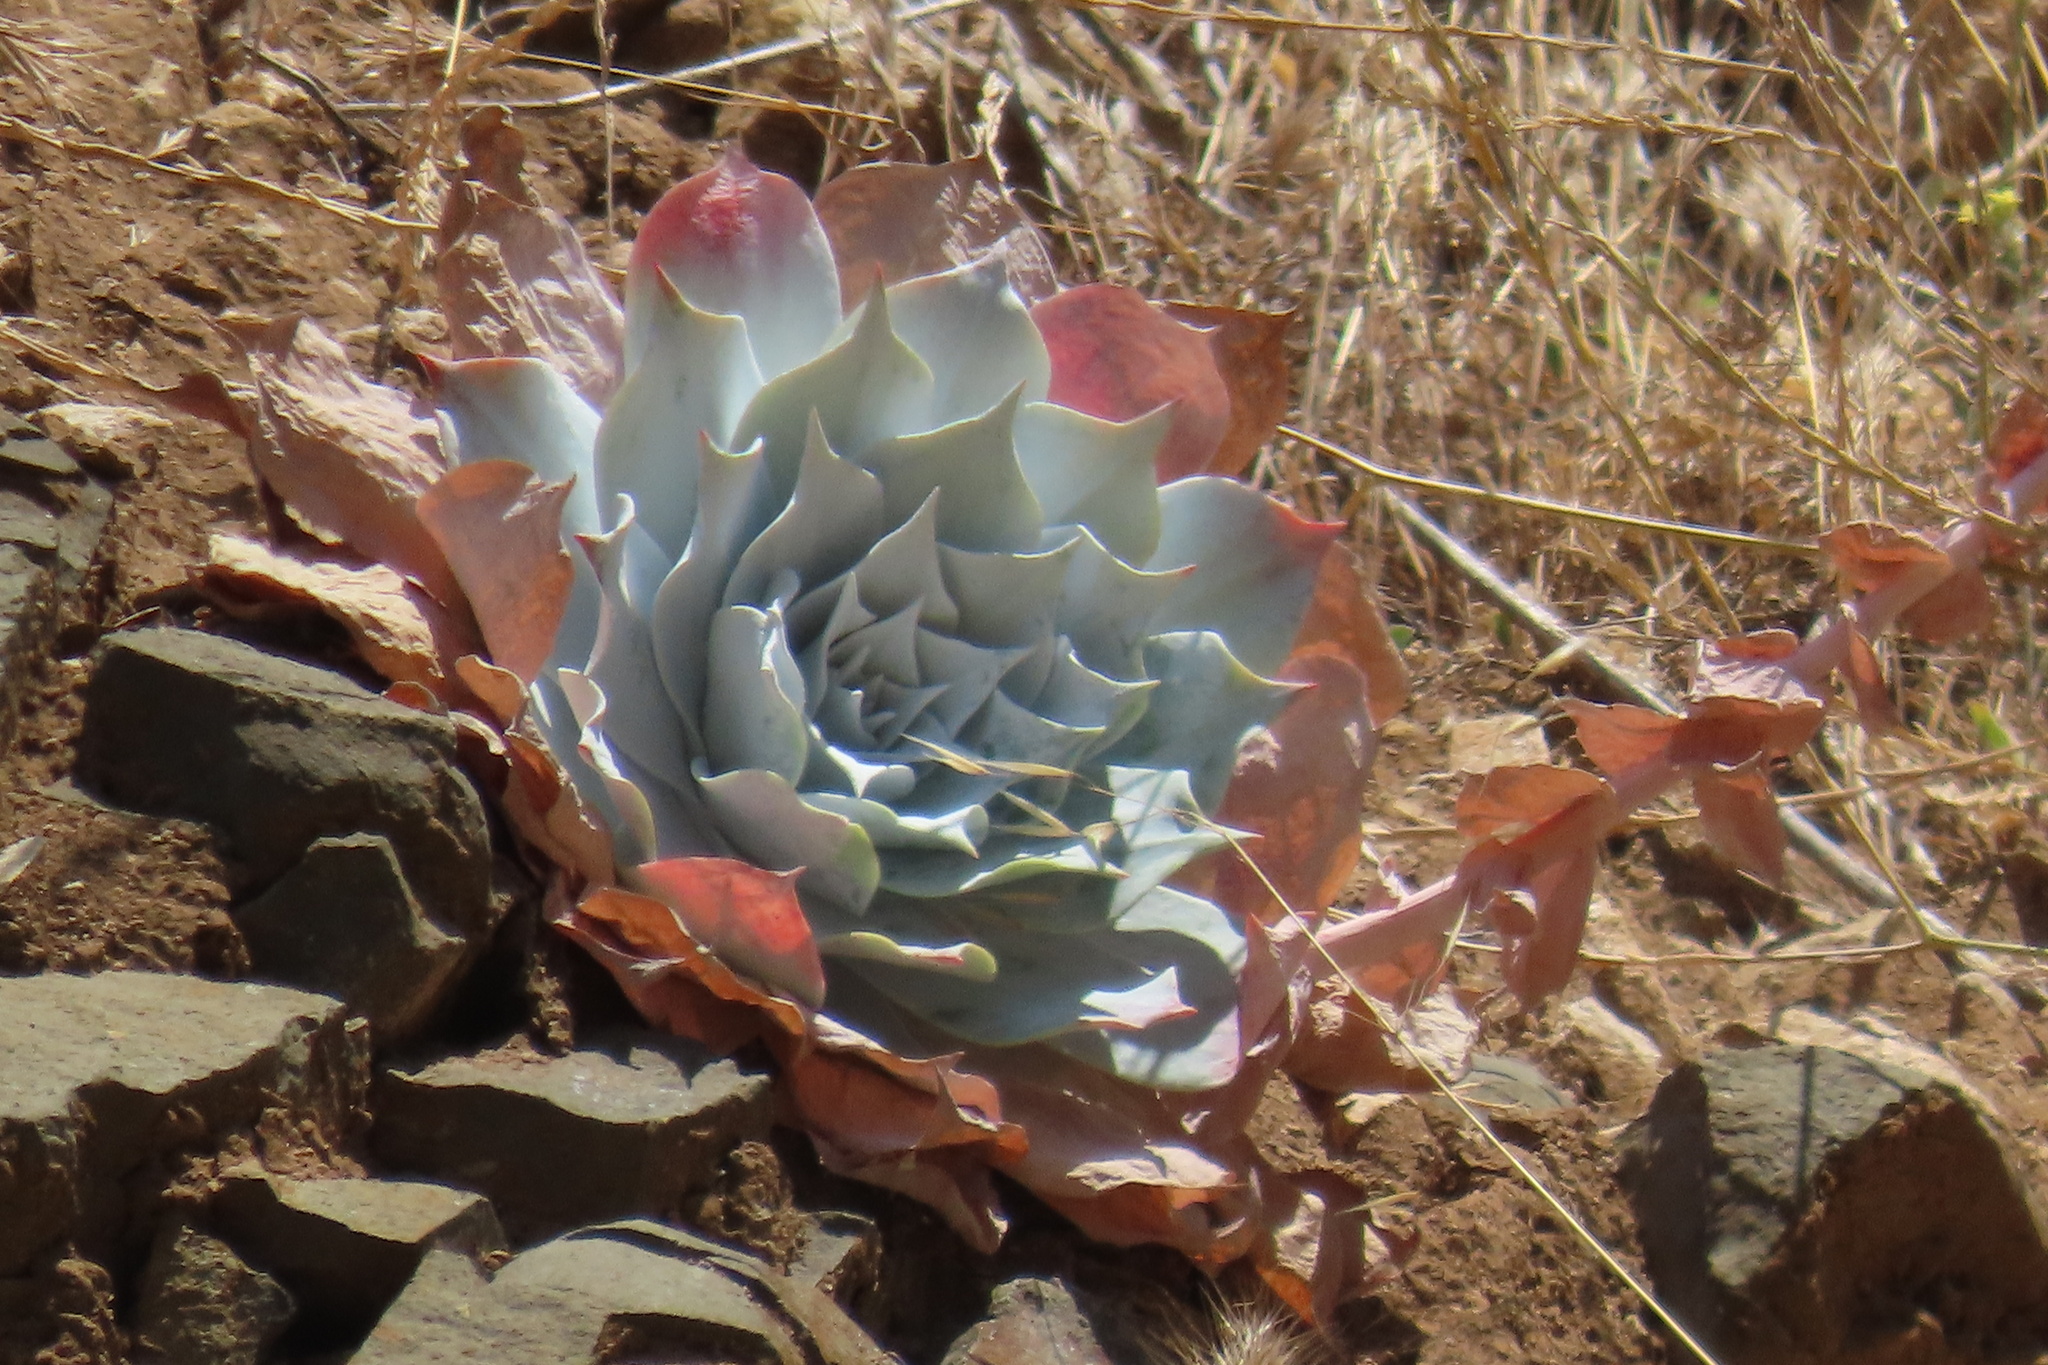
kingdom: Plantae
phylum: Tracheophyta
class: Magnoliopsida
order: Saxifragales
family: Crassulaceae
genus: Dudleya
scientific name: Dudleya pulverulenta
